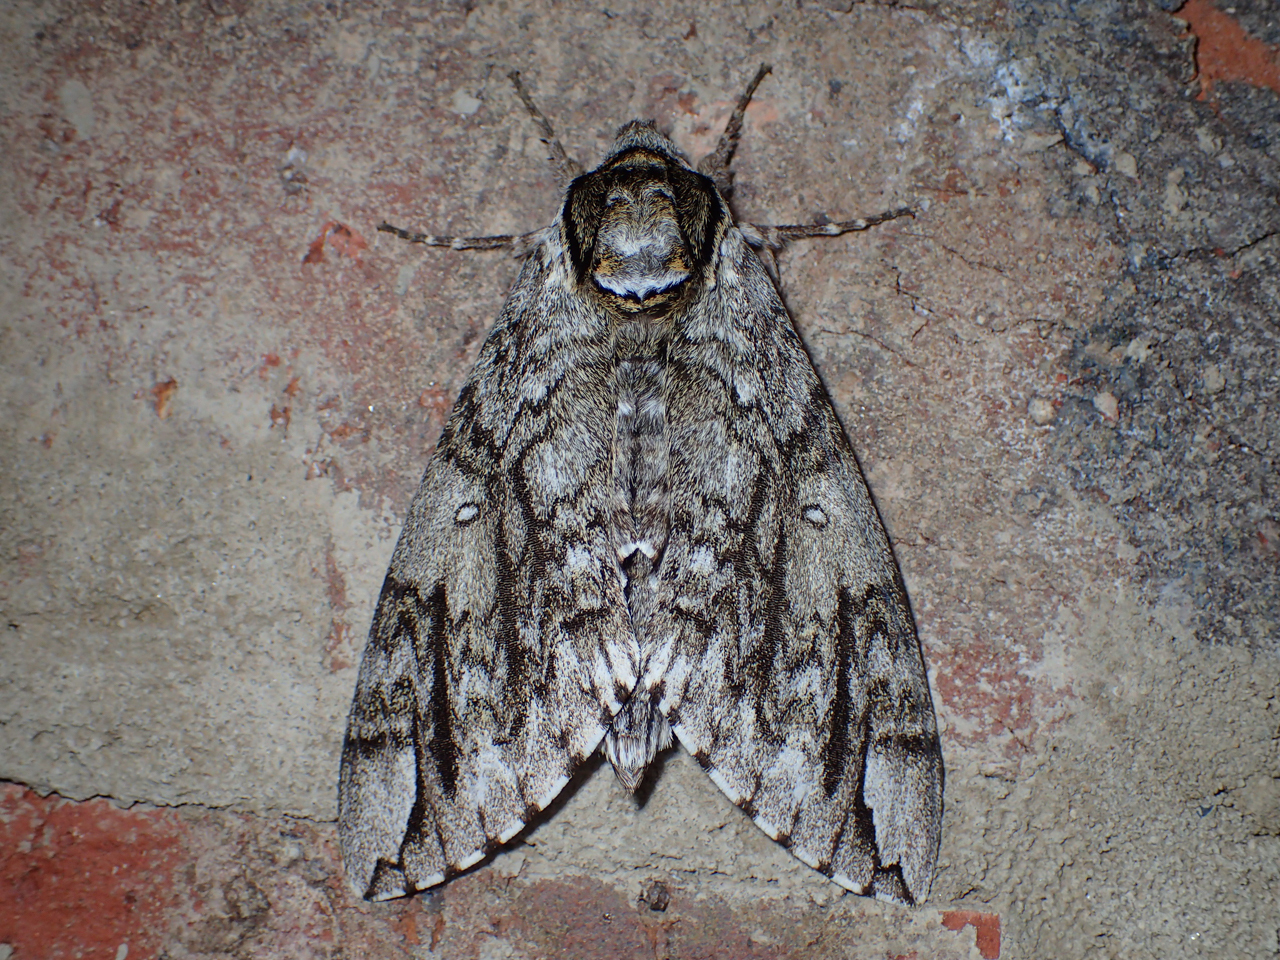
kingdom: Animalia
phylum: Arthropoda
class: Insecta
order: Lepidoptera
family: Sphingidae
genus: Ceratomia
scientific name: Ceratomia undulosa
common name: Waved sphinx
